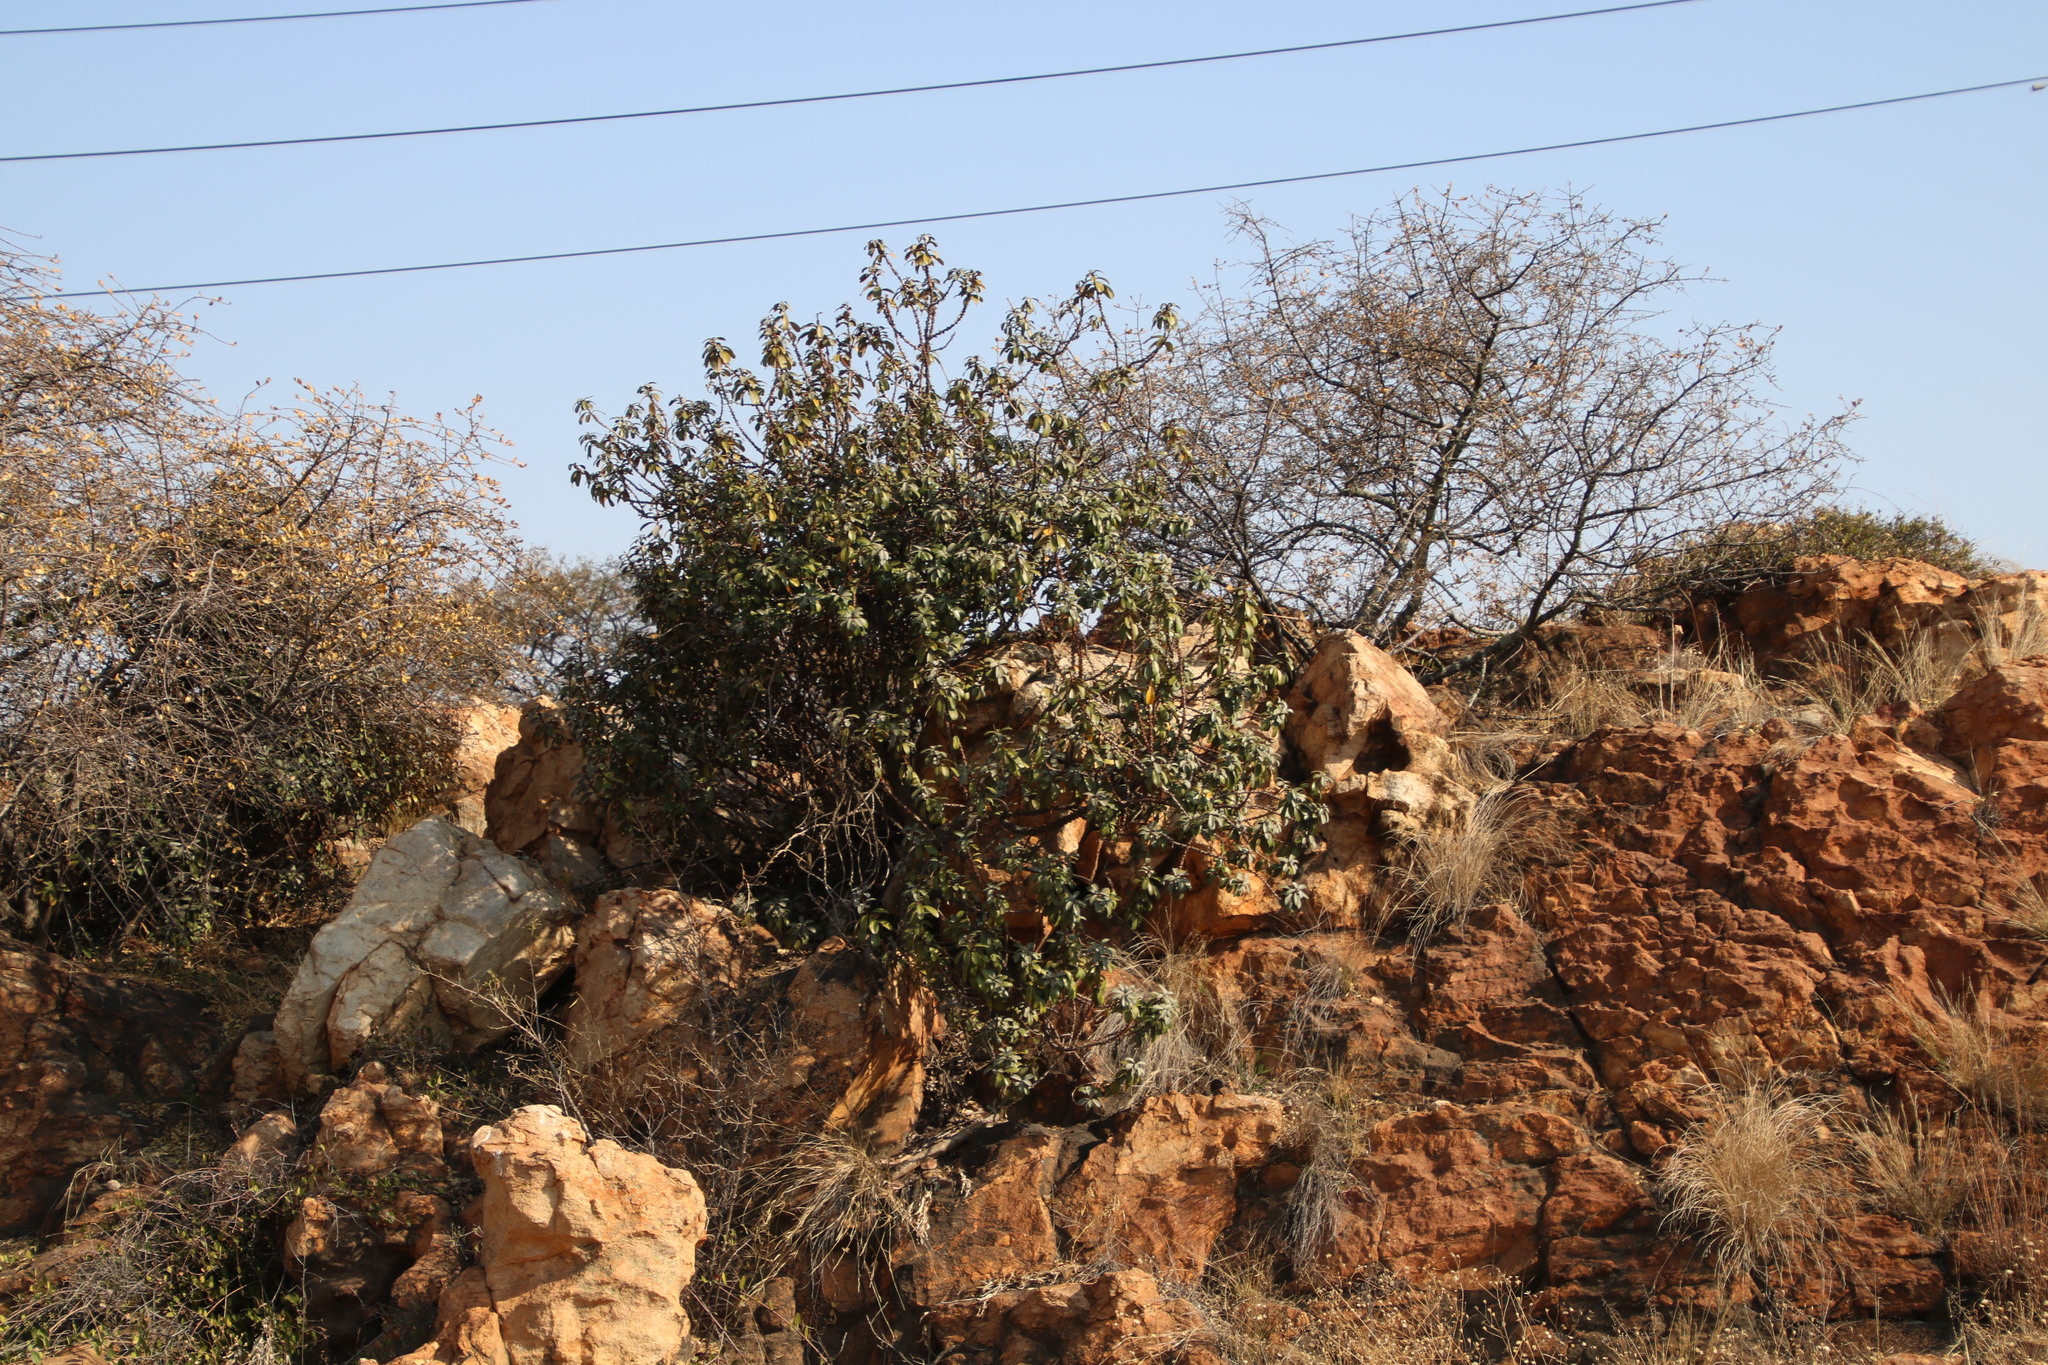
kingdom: Plantae
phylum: Tracheophyta
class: Magnoliopsida
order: Ericales
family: Sapotaceae
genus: Englerophytum
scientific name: Englerophytum magalismontanum
